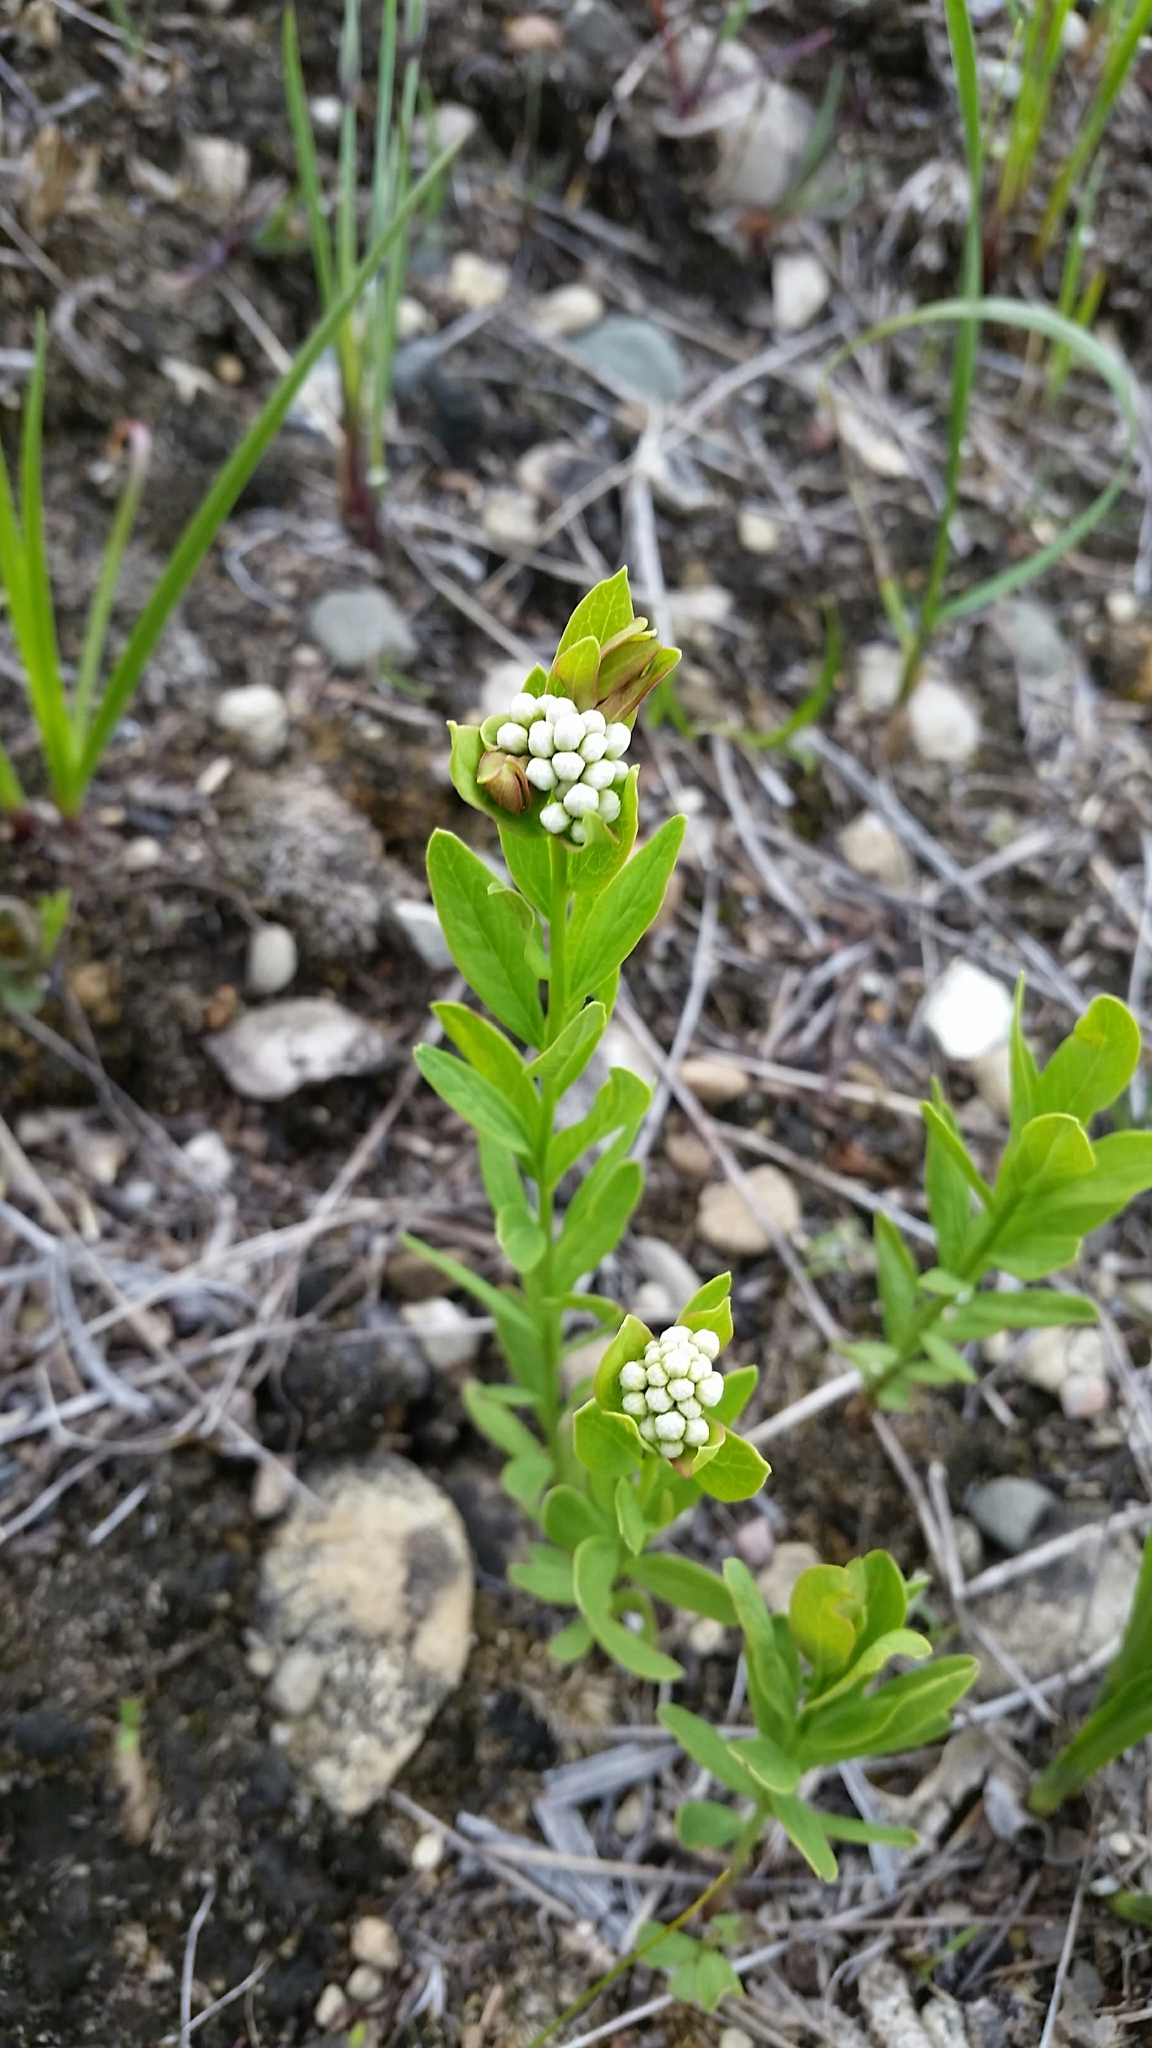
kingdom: Plantae
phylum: Tracheophyta
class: Magnoliopsida
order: Santalales
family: Comandraceae
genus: Comandra
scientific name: Comandra umbellata
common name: Bastard toadflax
